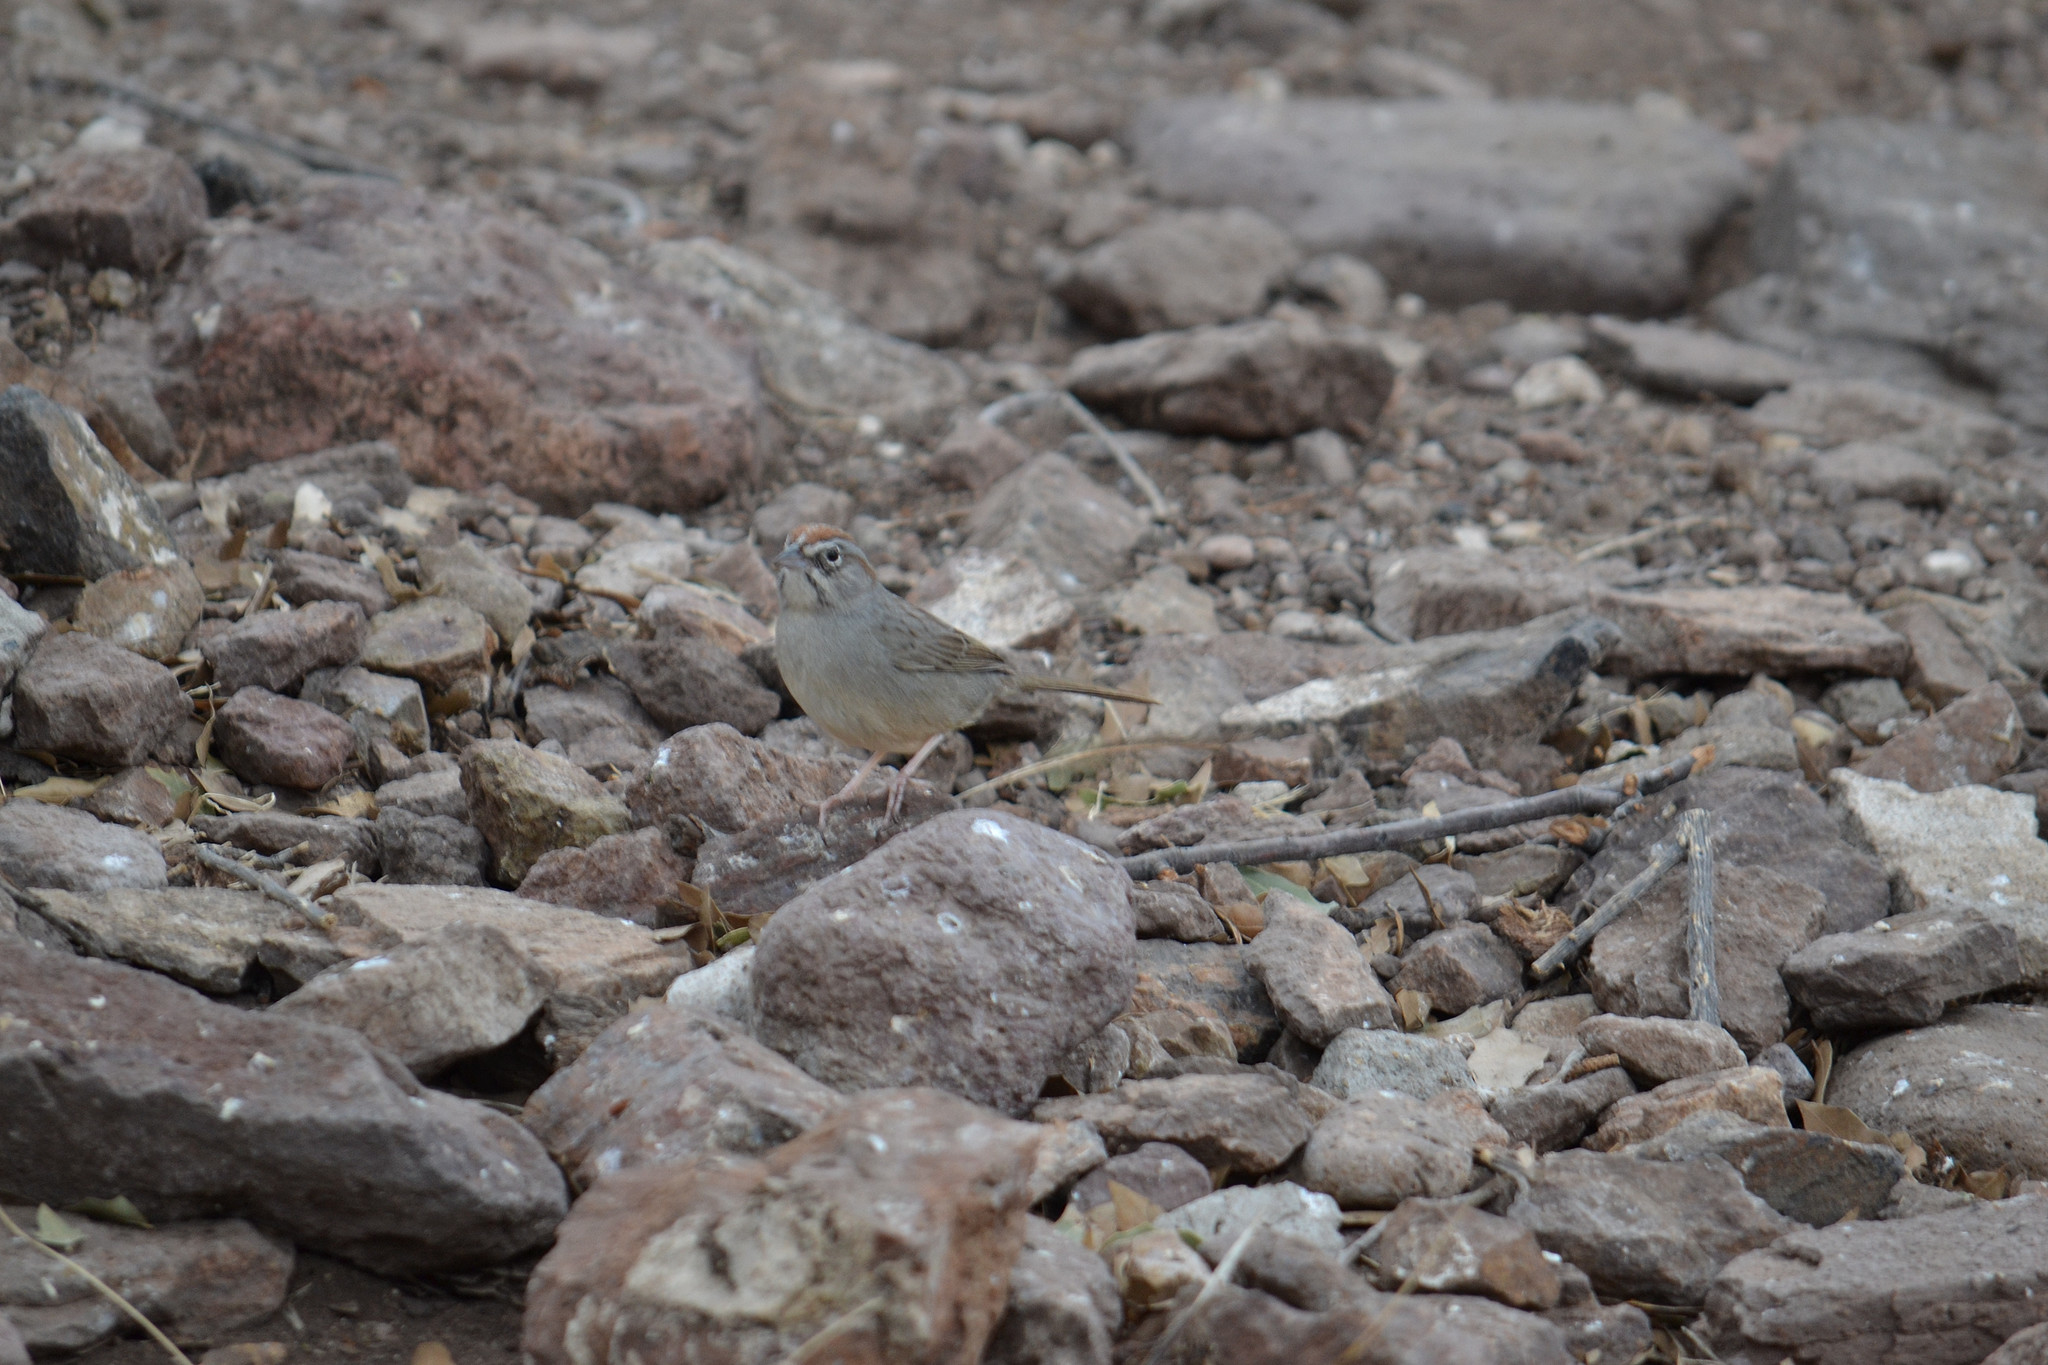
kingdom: Animalia
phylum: Chordata
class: Aves
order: Passeriformes
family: Passerellidae
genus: Aimophila
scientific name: Aimophila ruficeps
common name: Rufous-crowned sparrow
